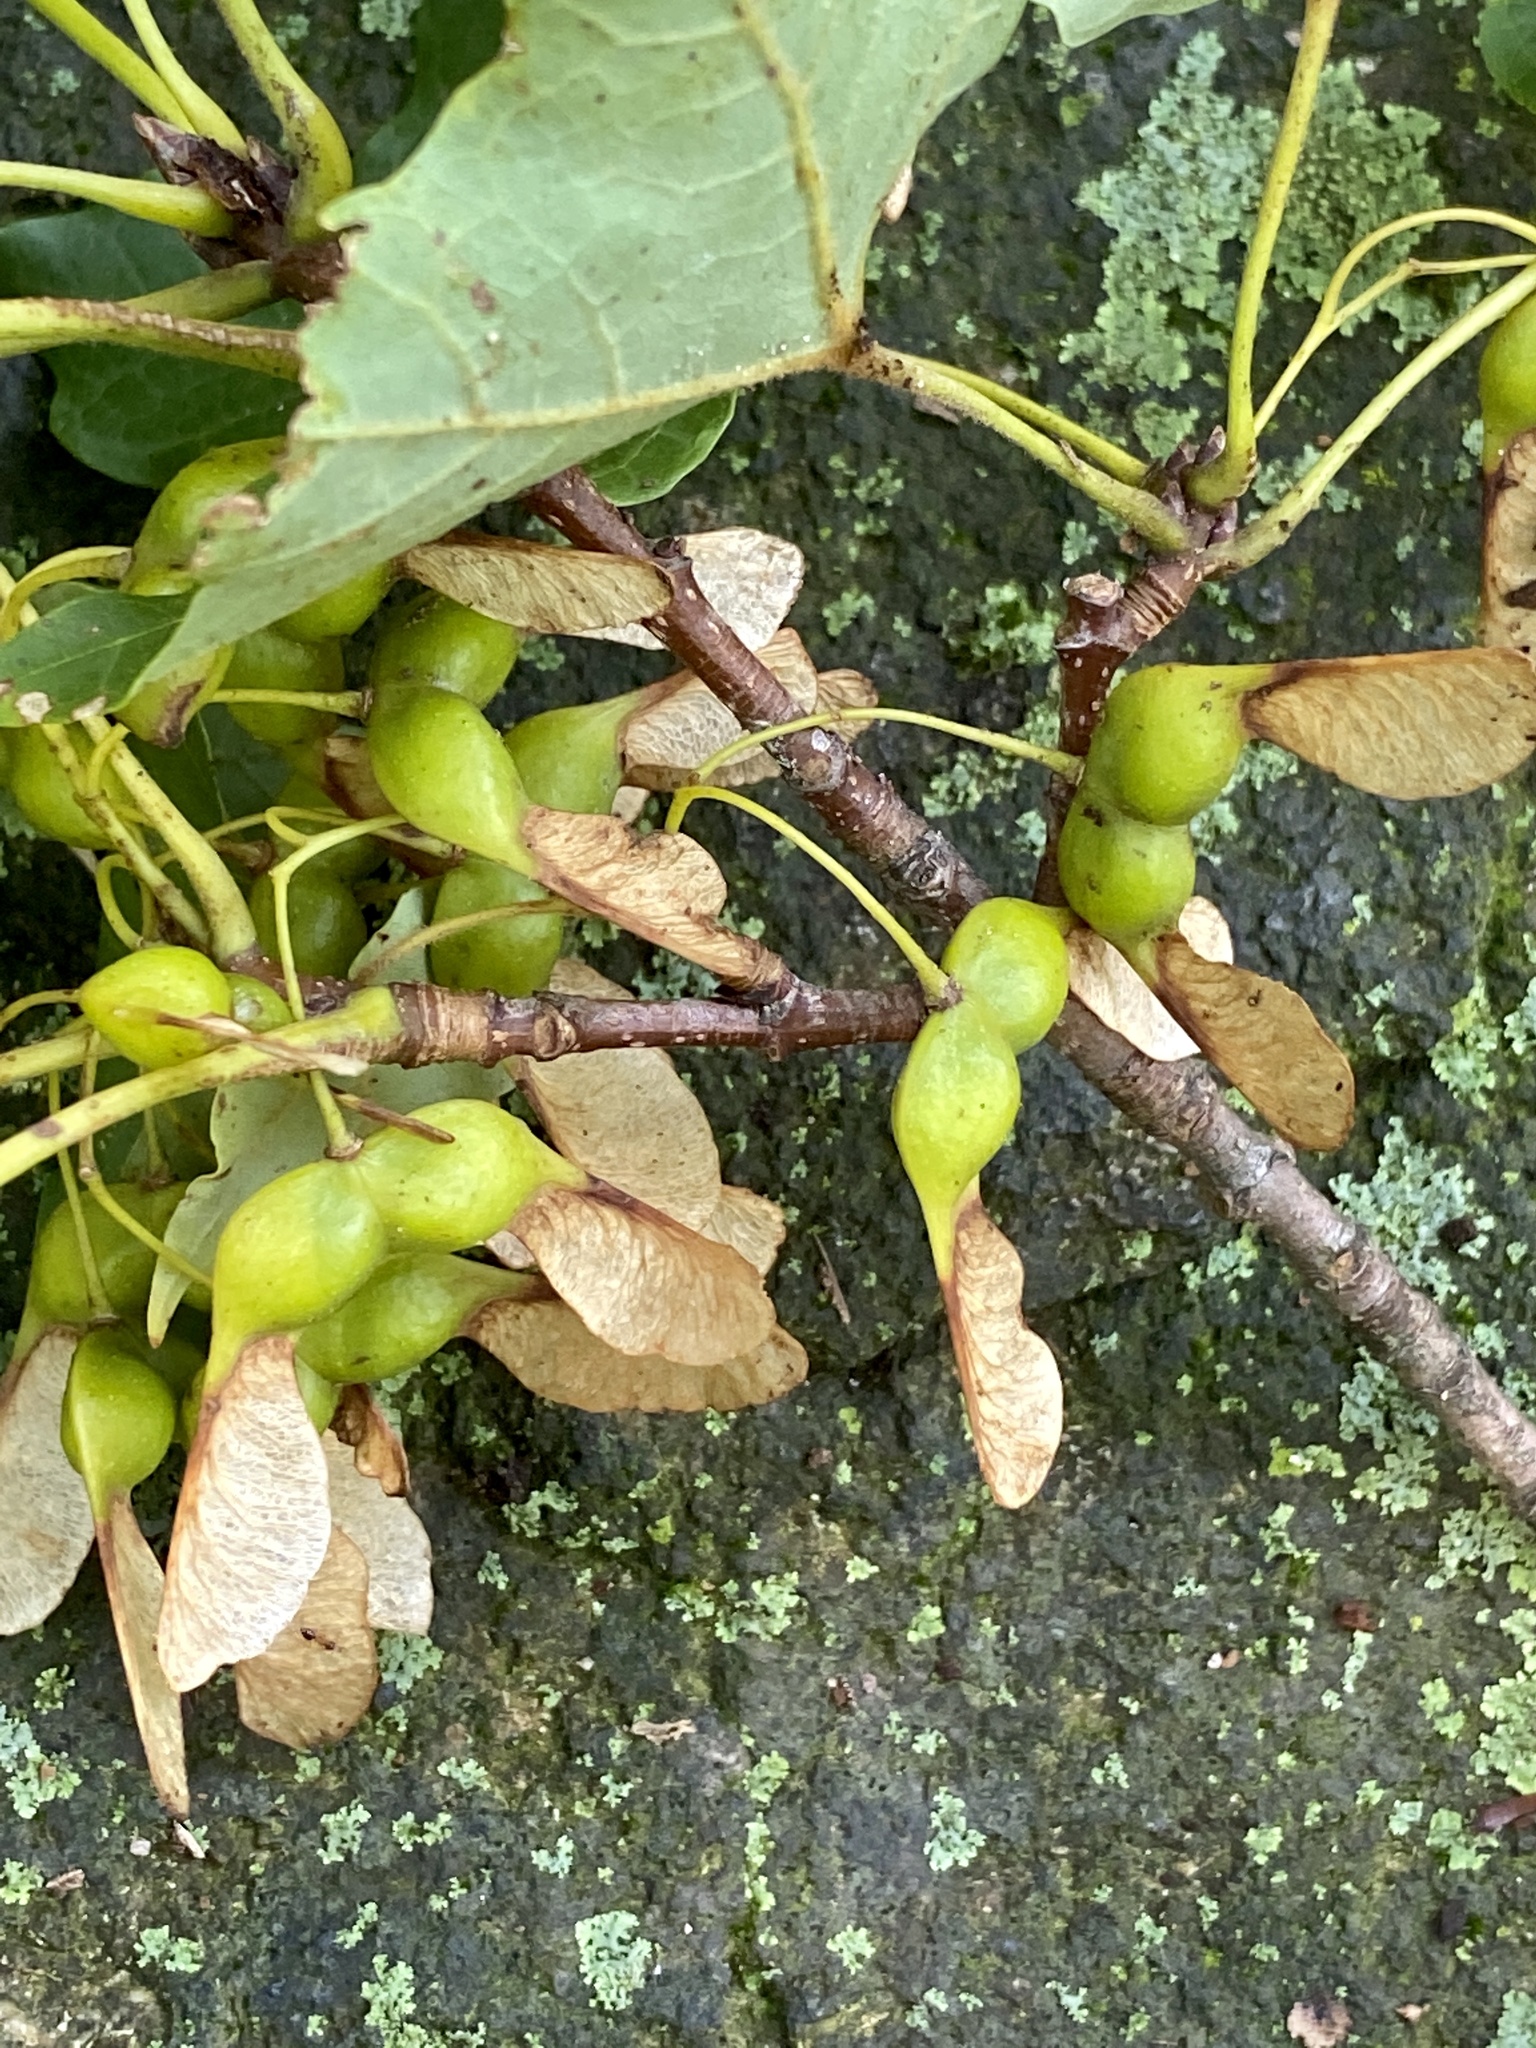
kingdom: Plantae
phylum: Tracheophyta
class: Magnoliopsida
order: Sapindales
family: Sapindaceae
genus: Acer
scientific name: Acer saccharum
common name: Sugar maple
